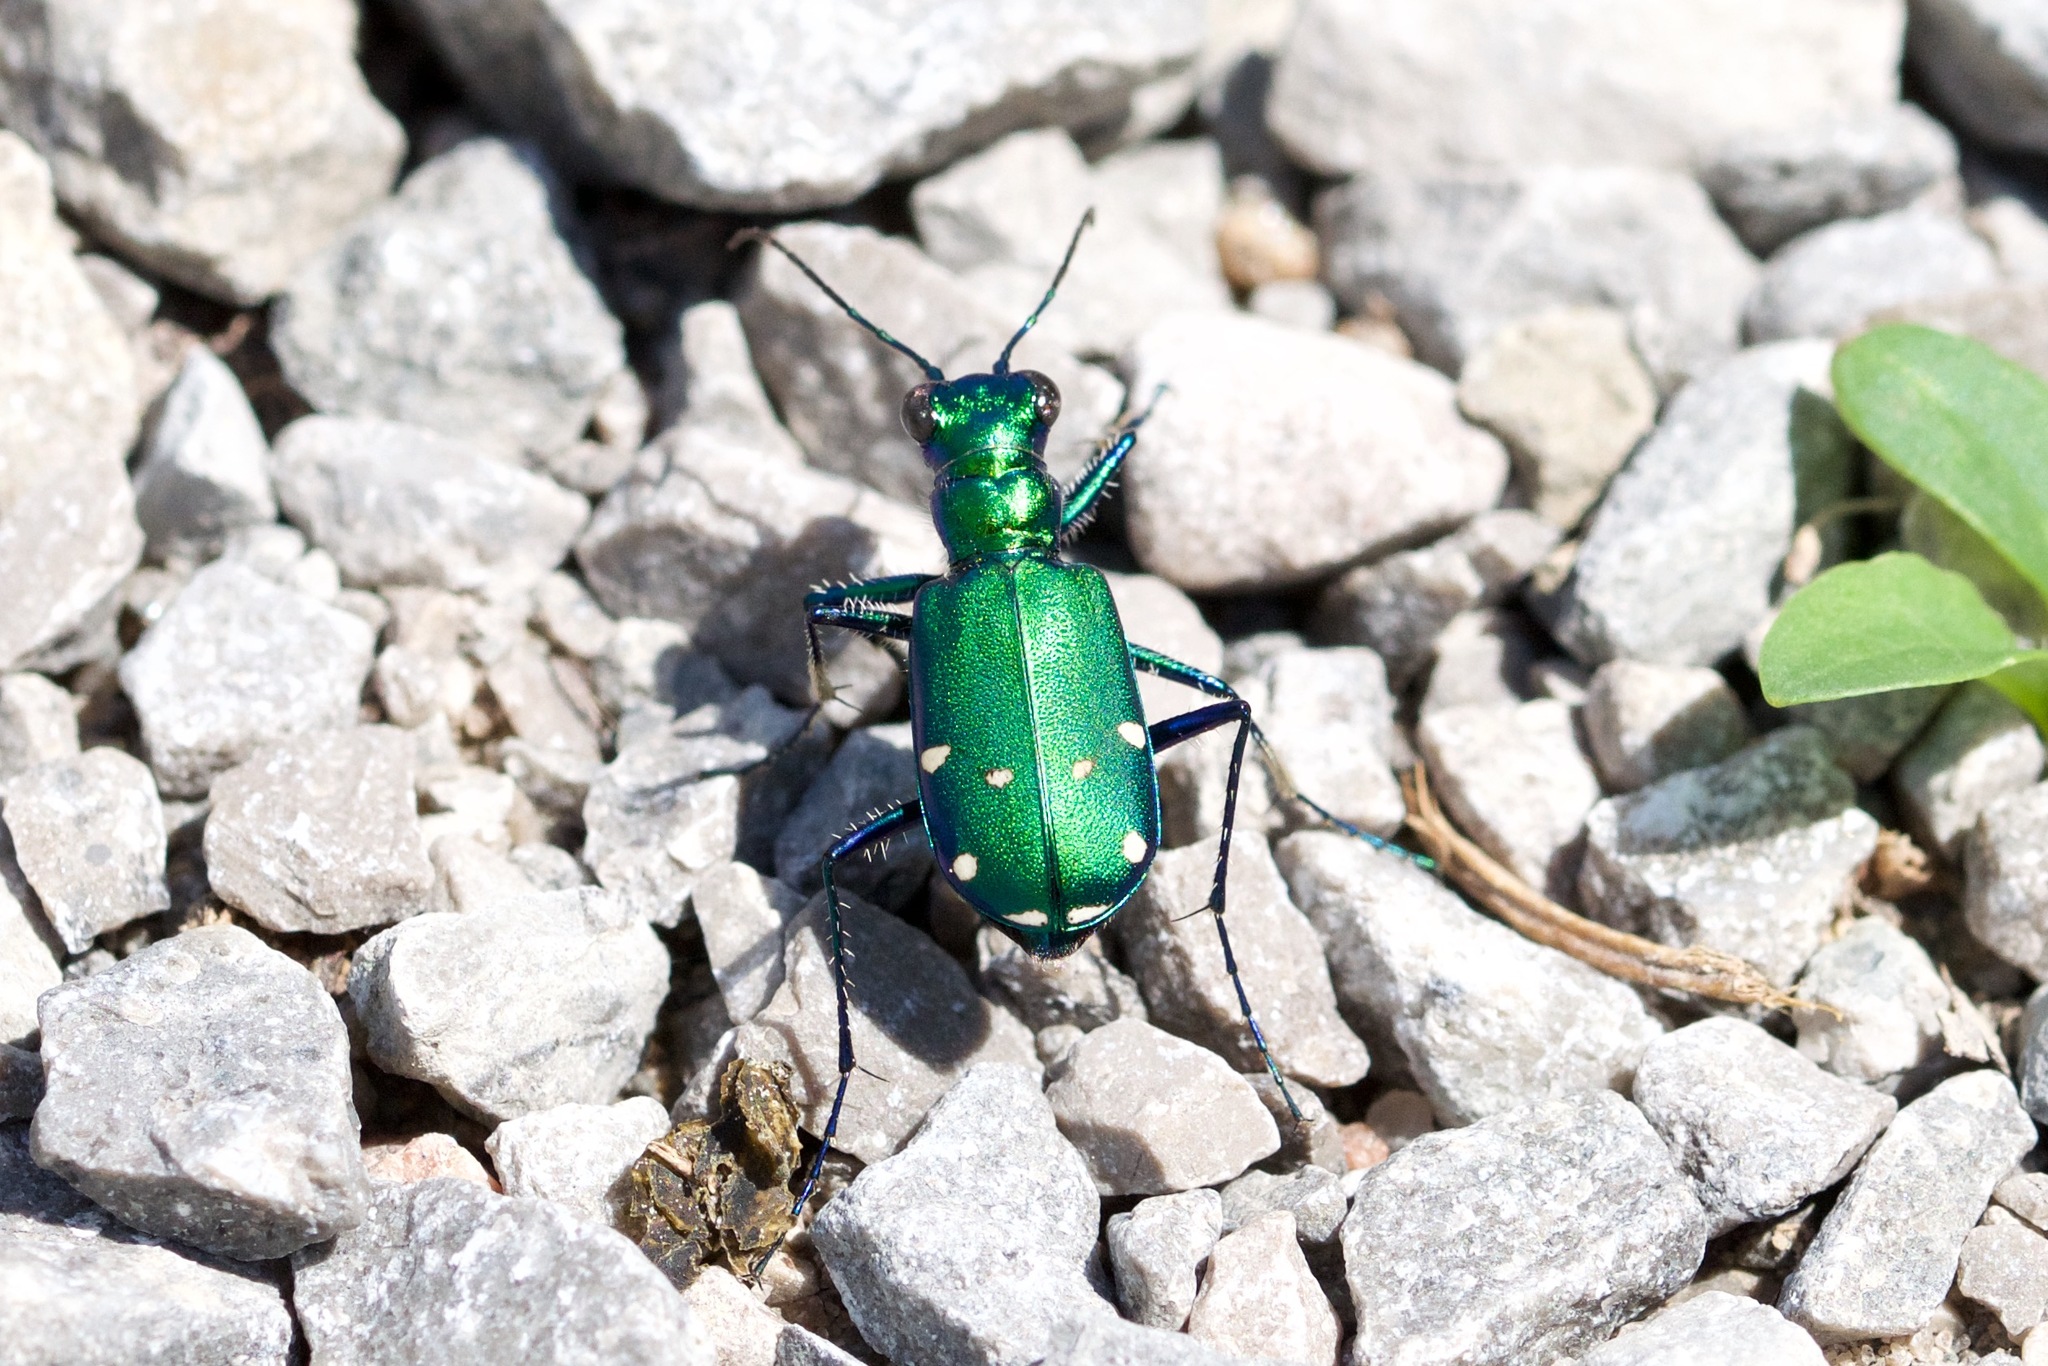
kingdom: Animalia
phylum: Arthropoda
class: Insecta
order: Coleoptera
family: Carabidae
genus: Cicindela
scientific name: Cicindela sexguttata
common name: Six-spotted tiger beetle
